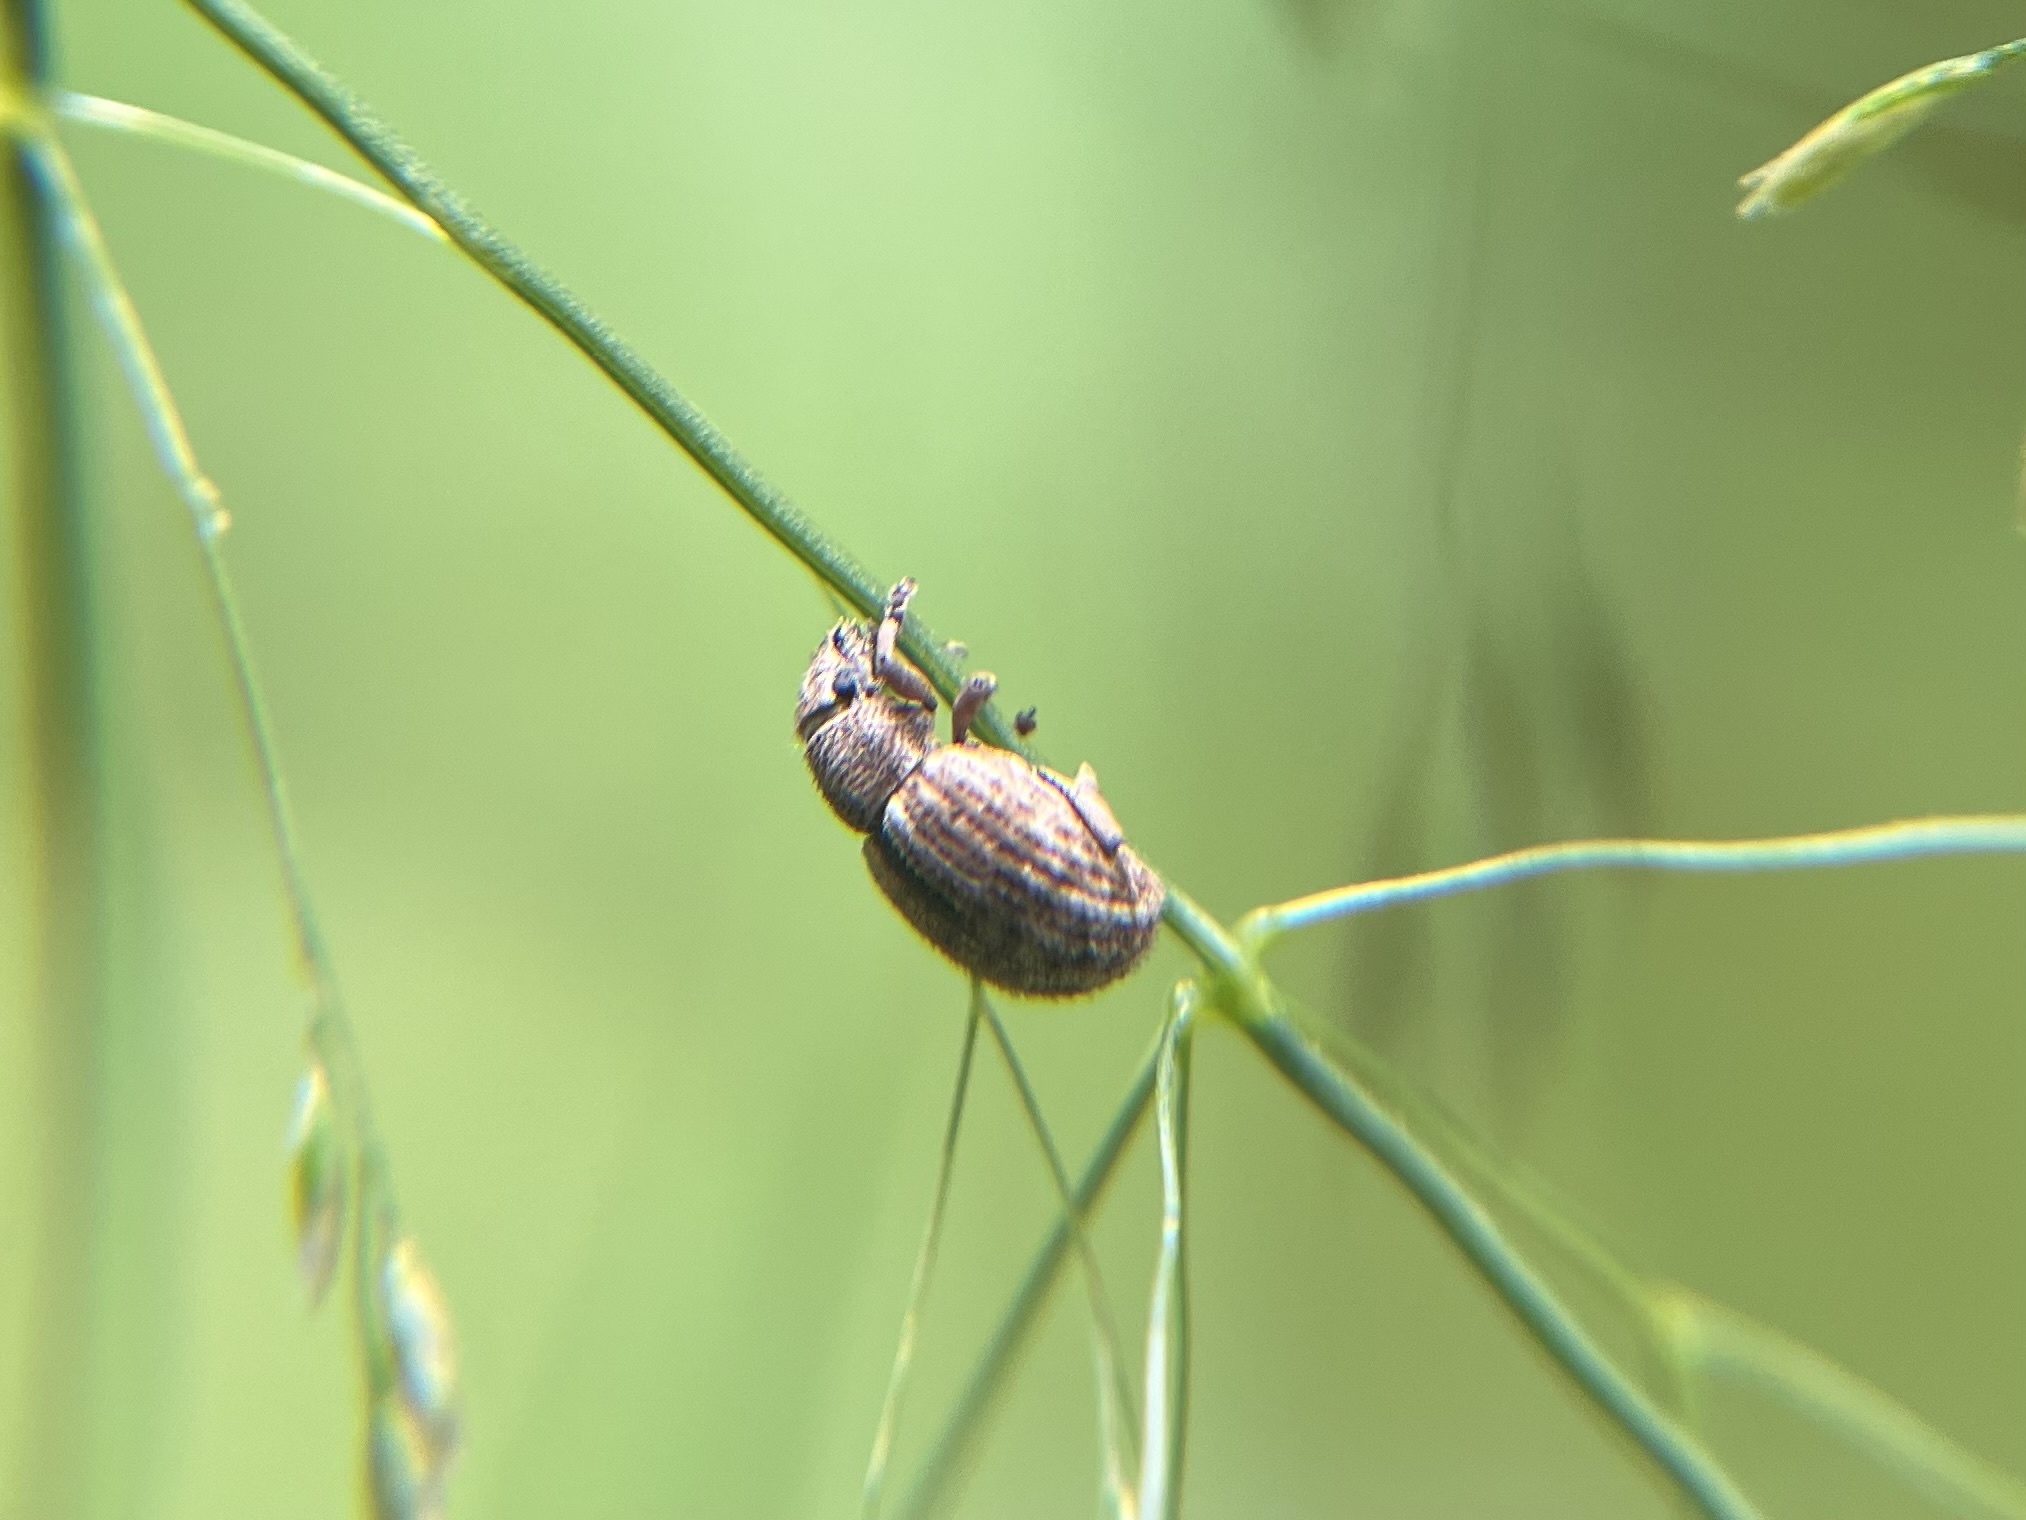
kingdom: Animalia
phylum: Arthropoda
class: Insecta
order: Coleoptera
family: Curculionidae
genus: Strophosoma
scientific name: Strophosoma melanogrammum
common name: Weevil
